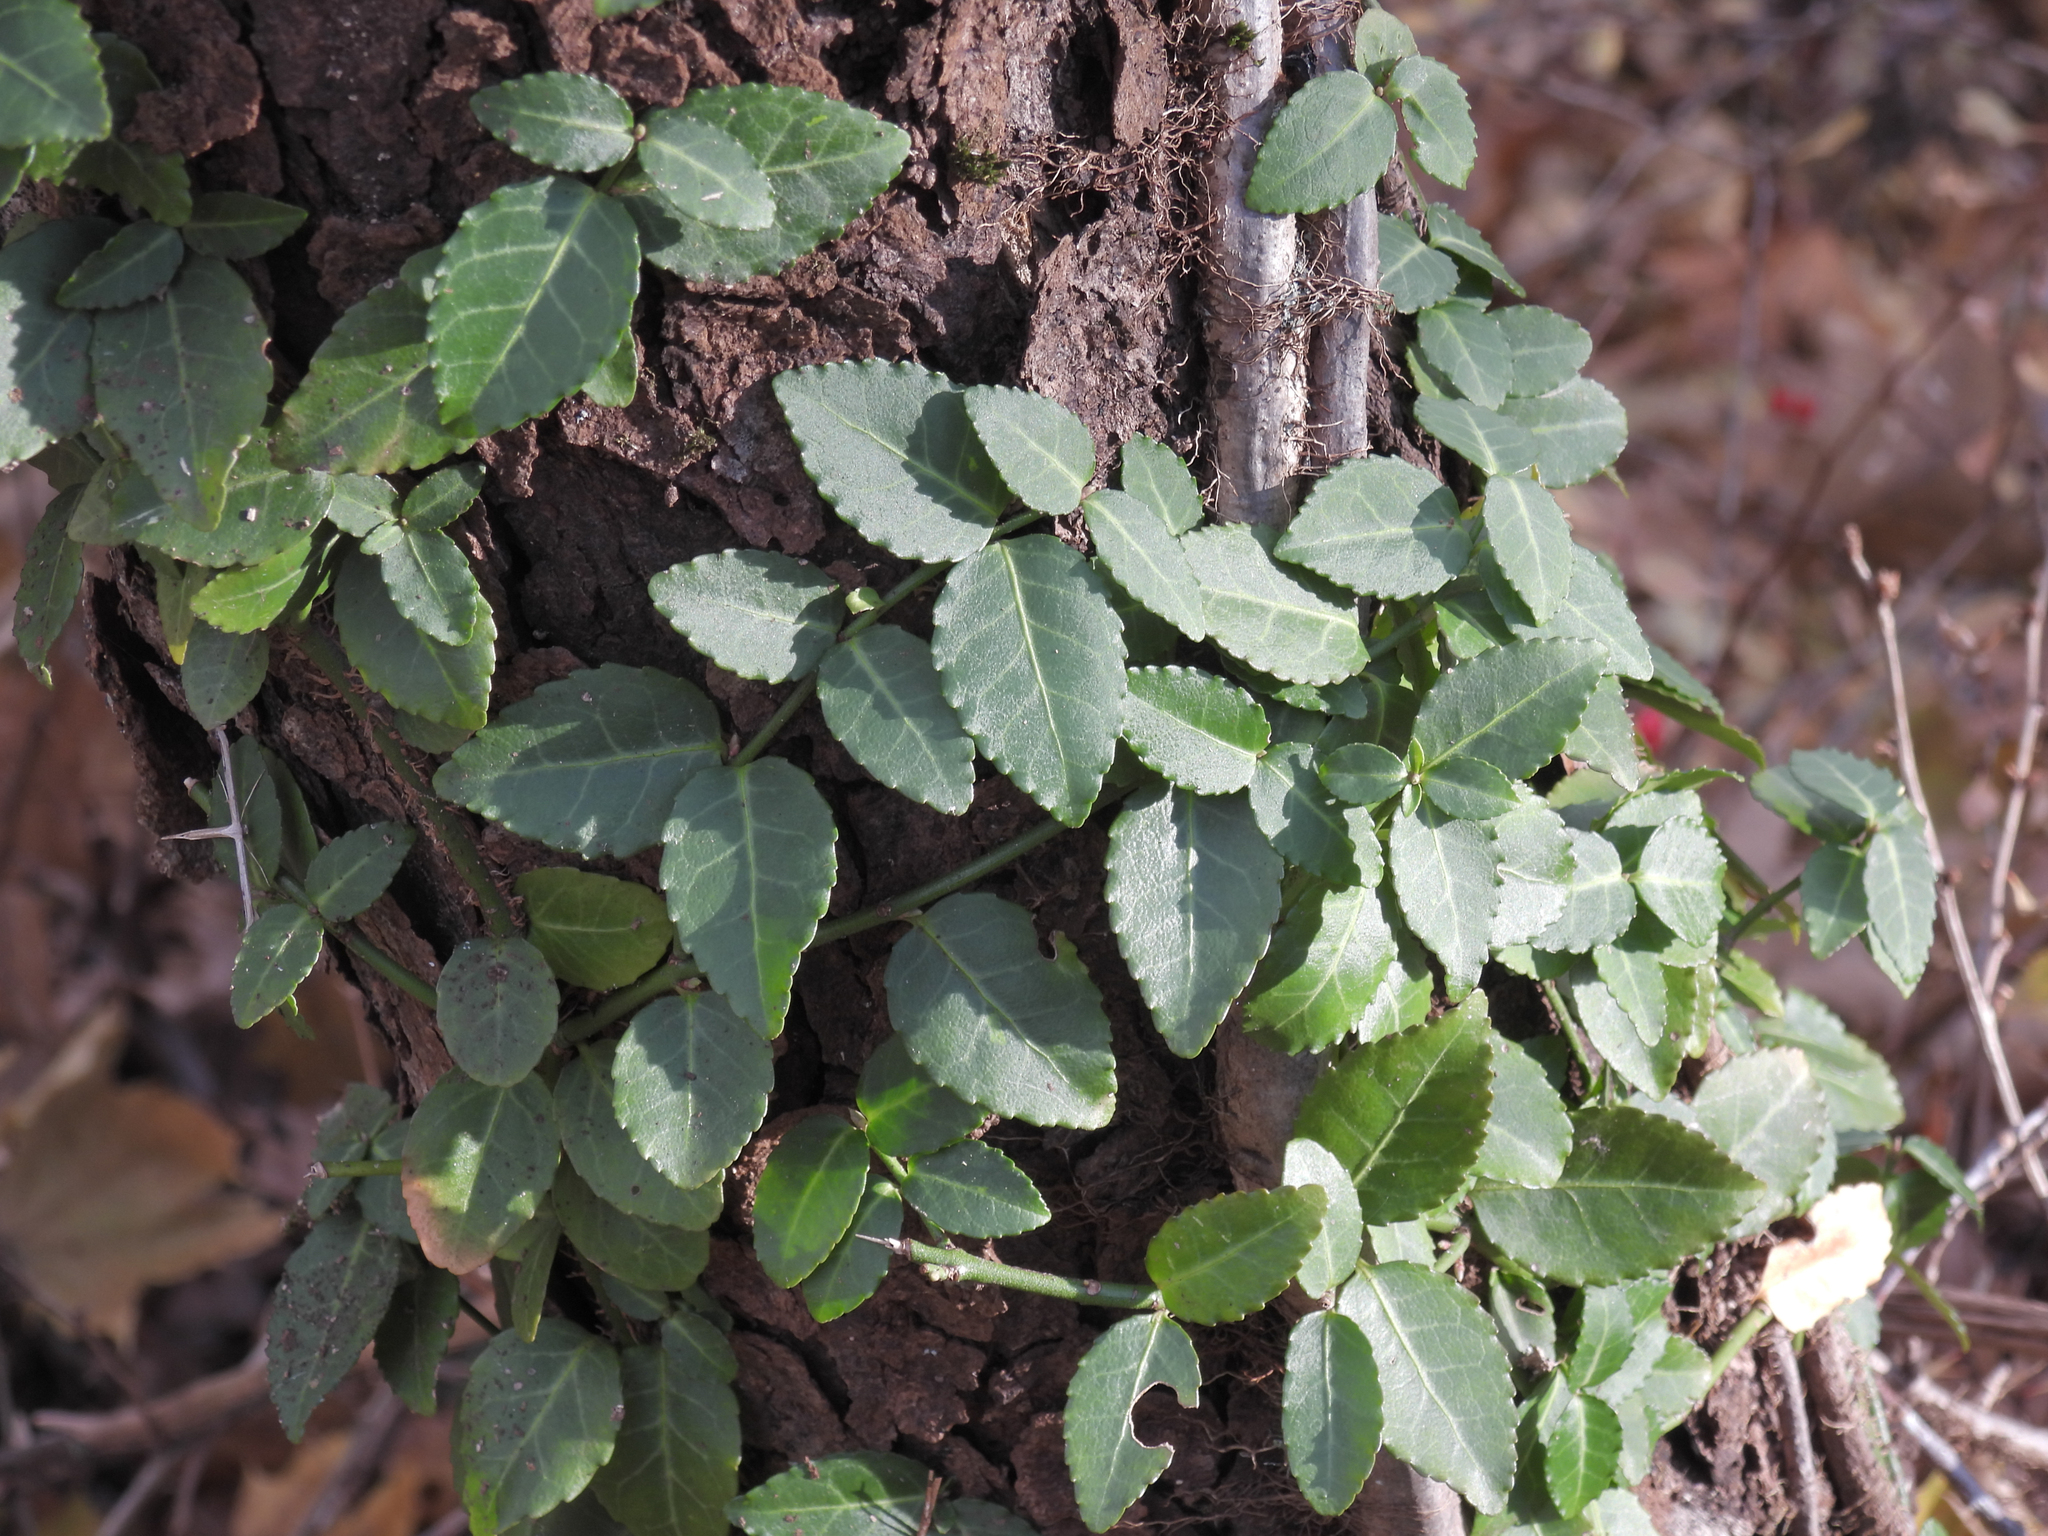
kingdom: Plantae
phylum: Tracheophyta
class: Magnoliopsida
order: Celastrales
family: Celastraceae
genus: Euonymus
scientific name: Euonymus fortunei
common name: Climbing euonymus
